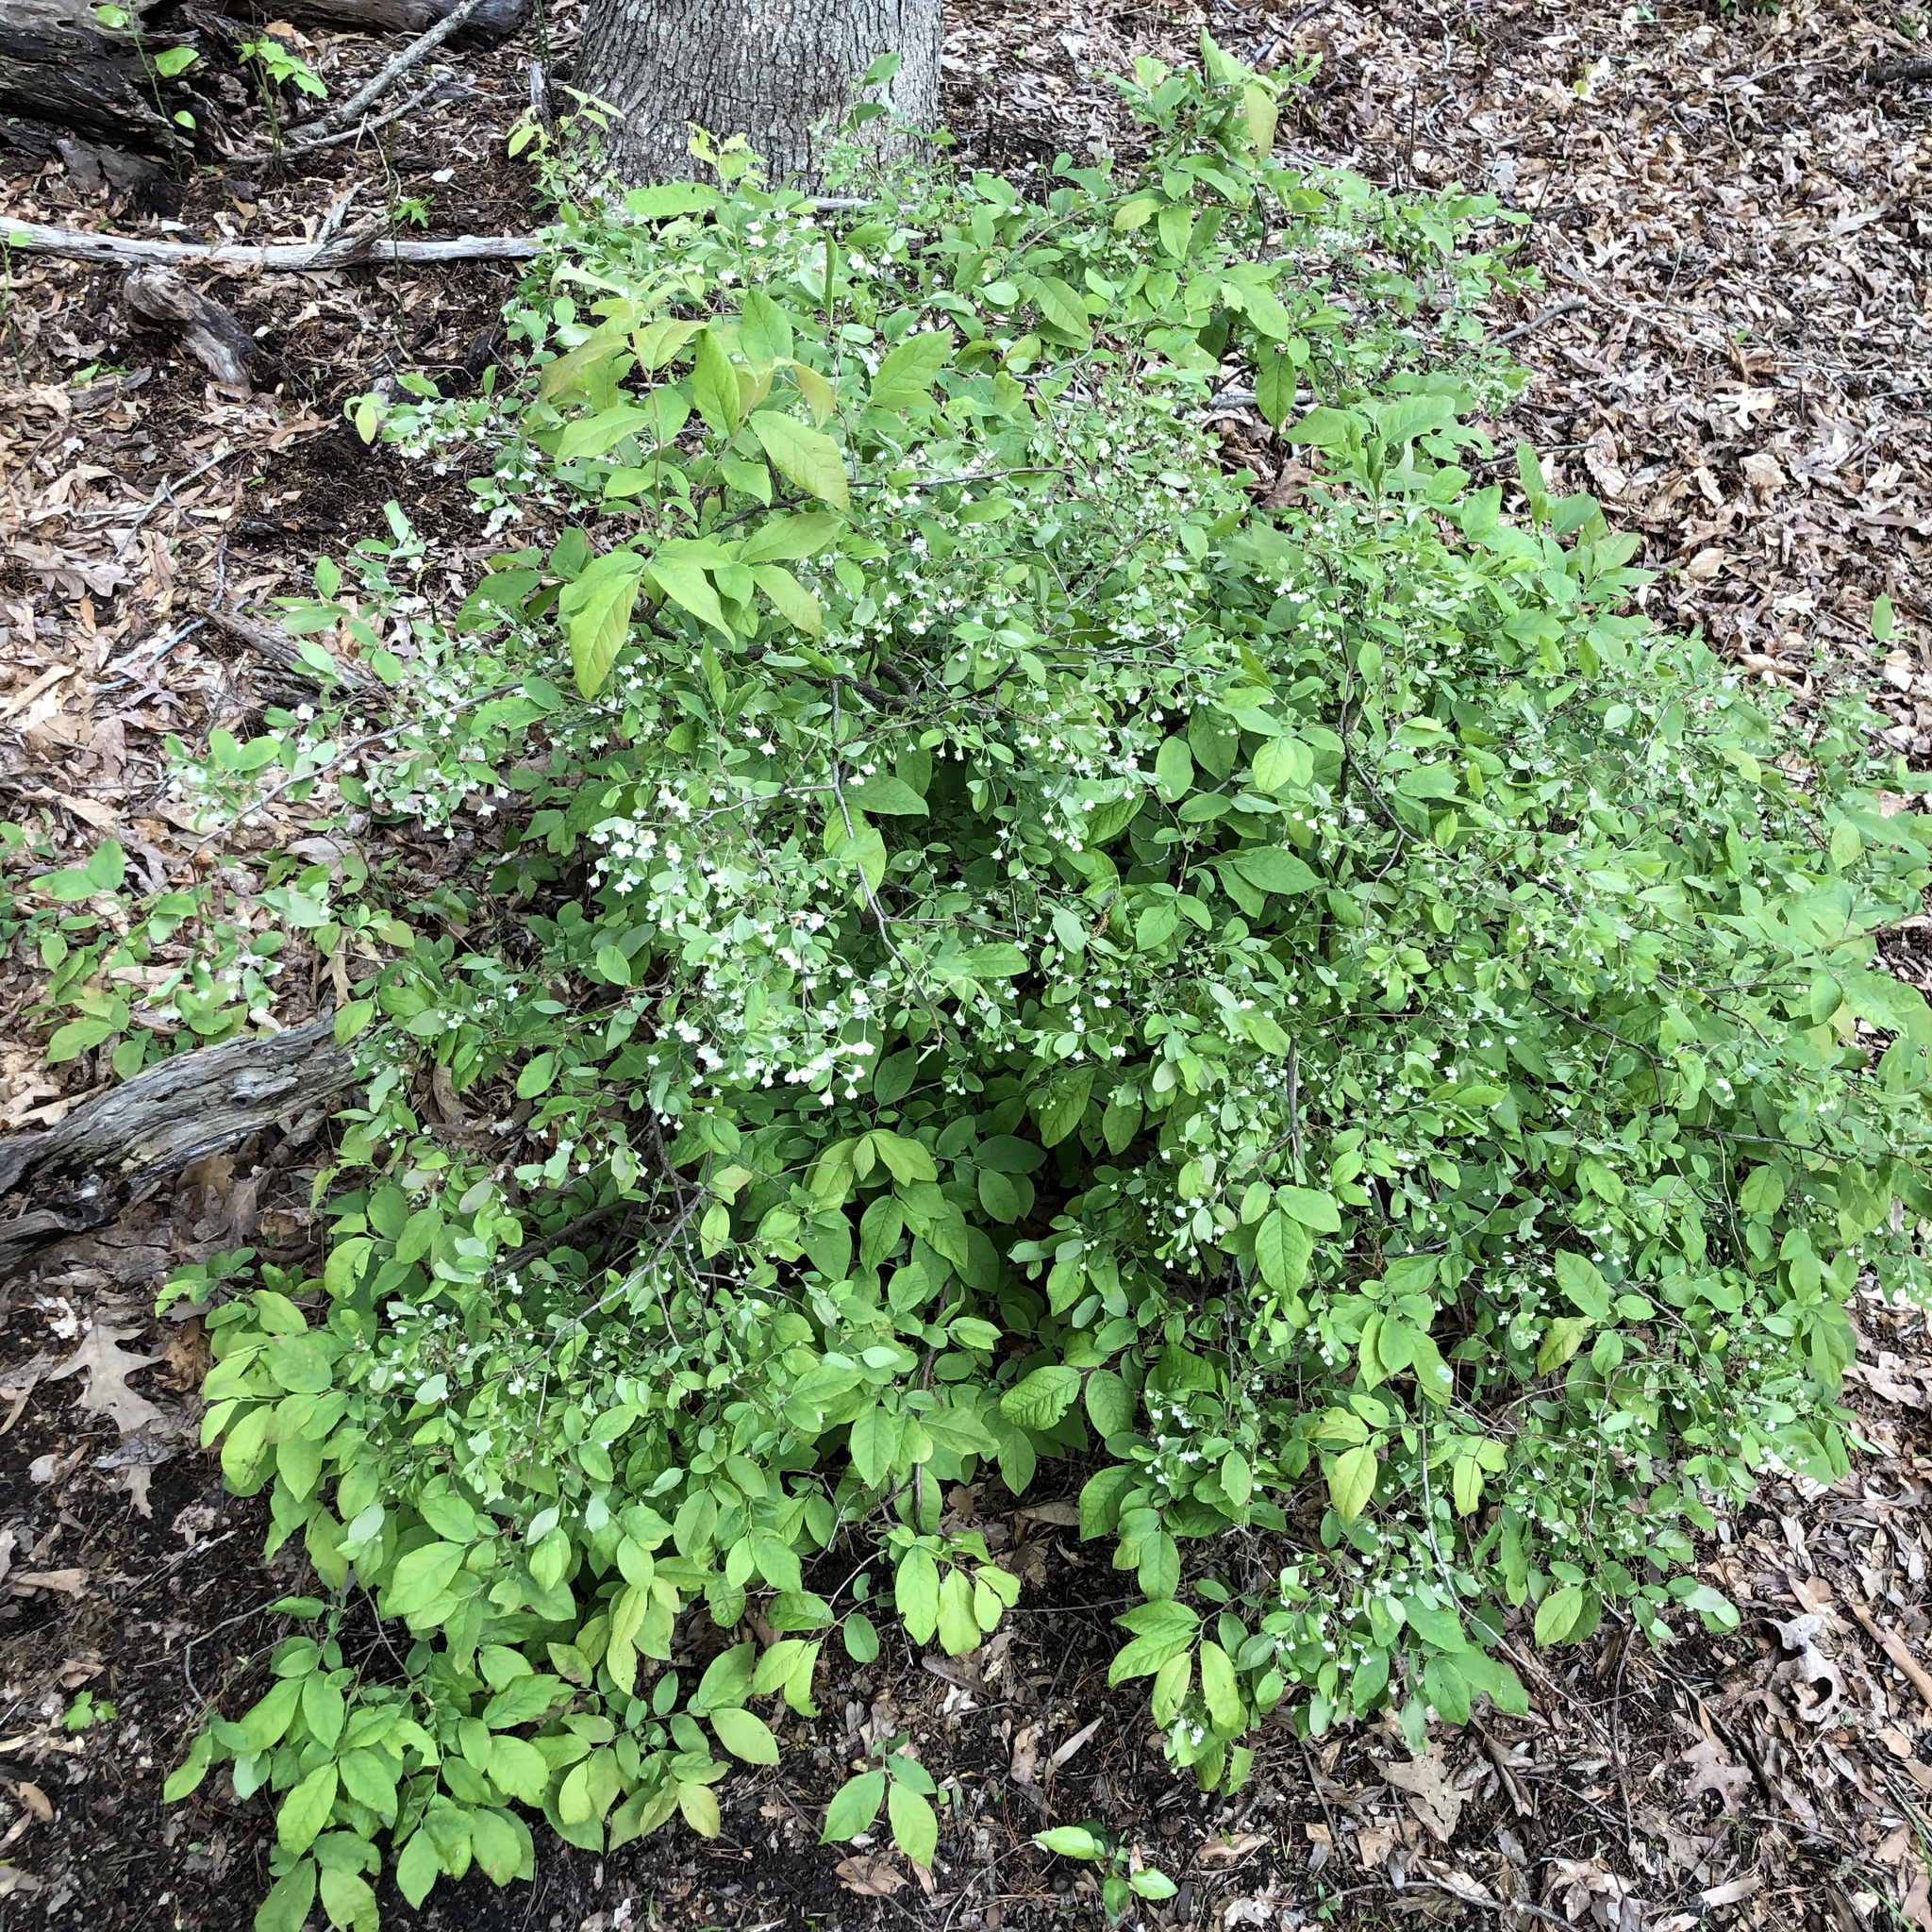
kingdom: Plantae
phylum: Tracheophyta
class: Magnoliopsida
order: Ericales
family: Ericaceae
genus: Vaccinium
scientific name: Vaccinium stamineum
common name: Deerberry
